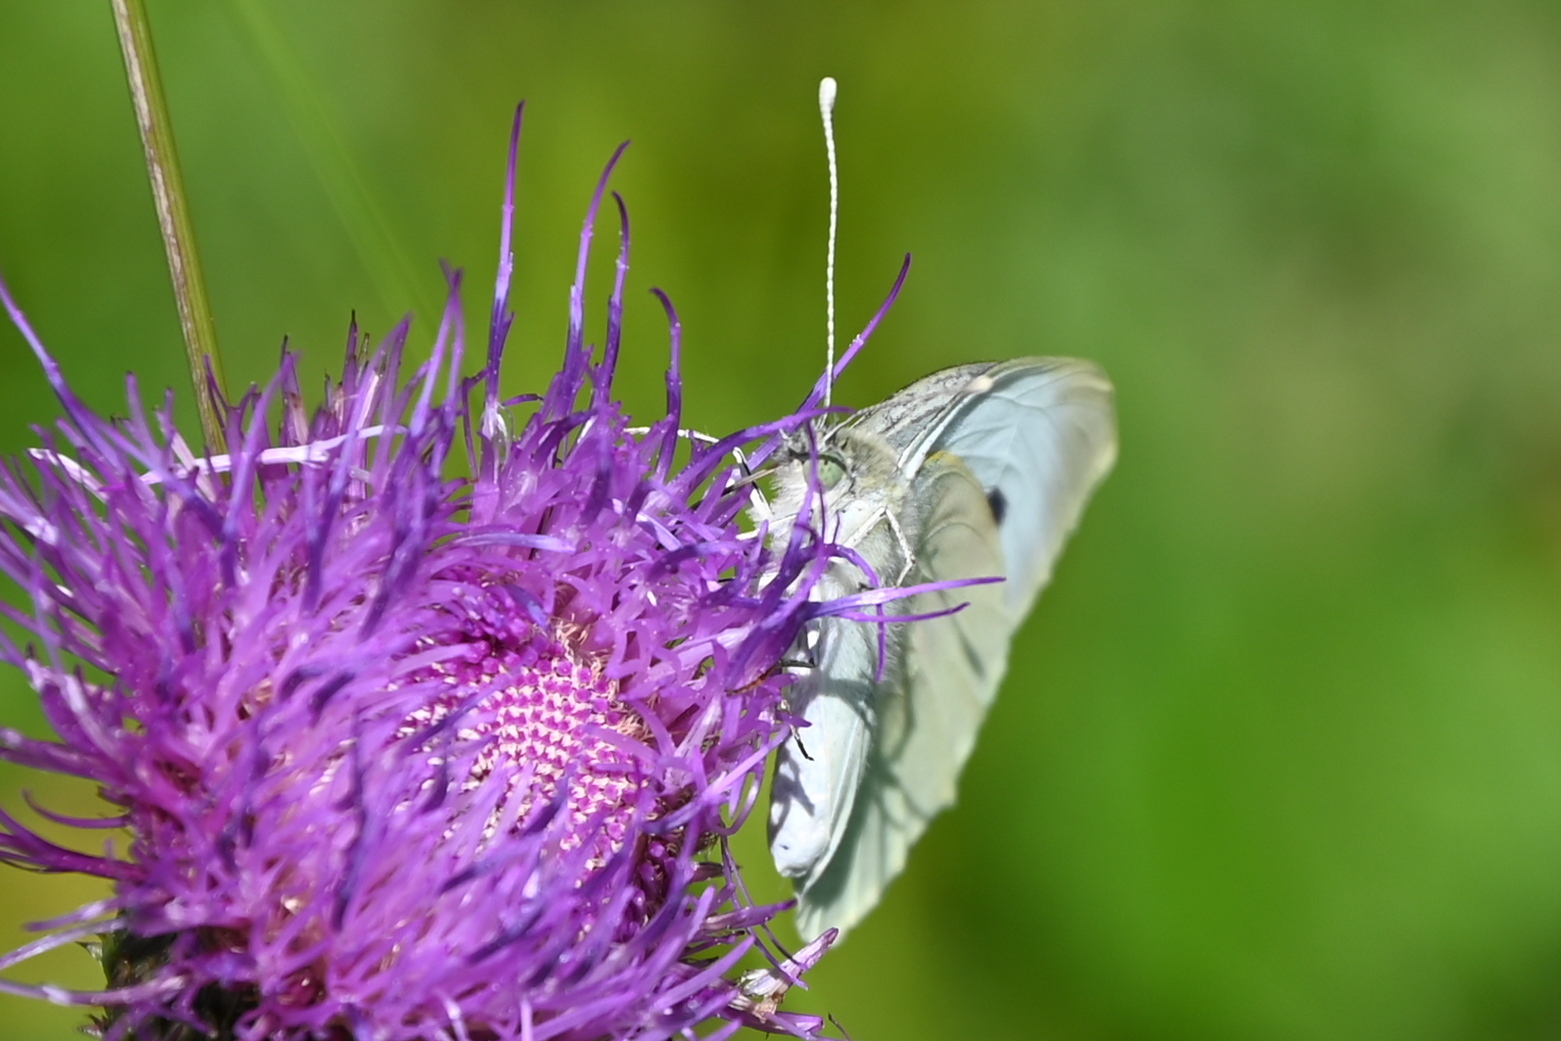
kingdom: Animalia
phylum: Arthropoda
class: Insecta
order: Lepidoptera
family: Pieridae
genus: Pieris
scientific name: Pieris brassicae
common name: Large white
